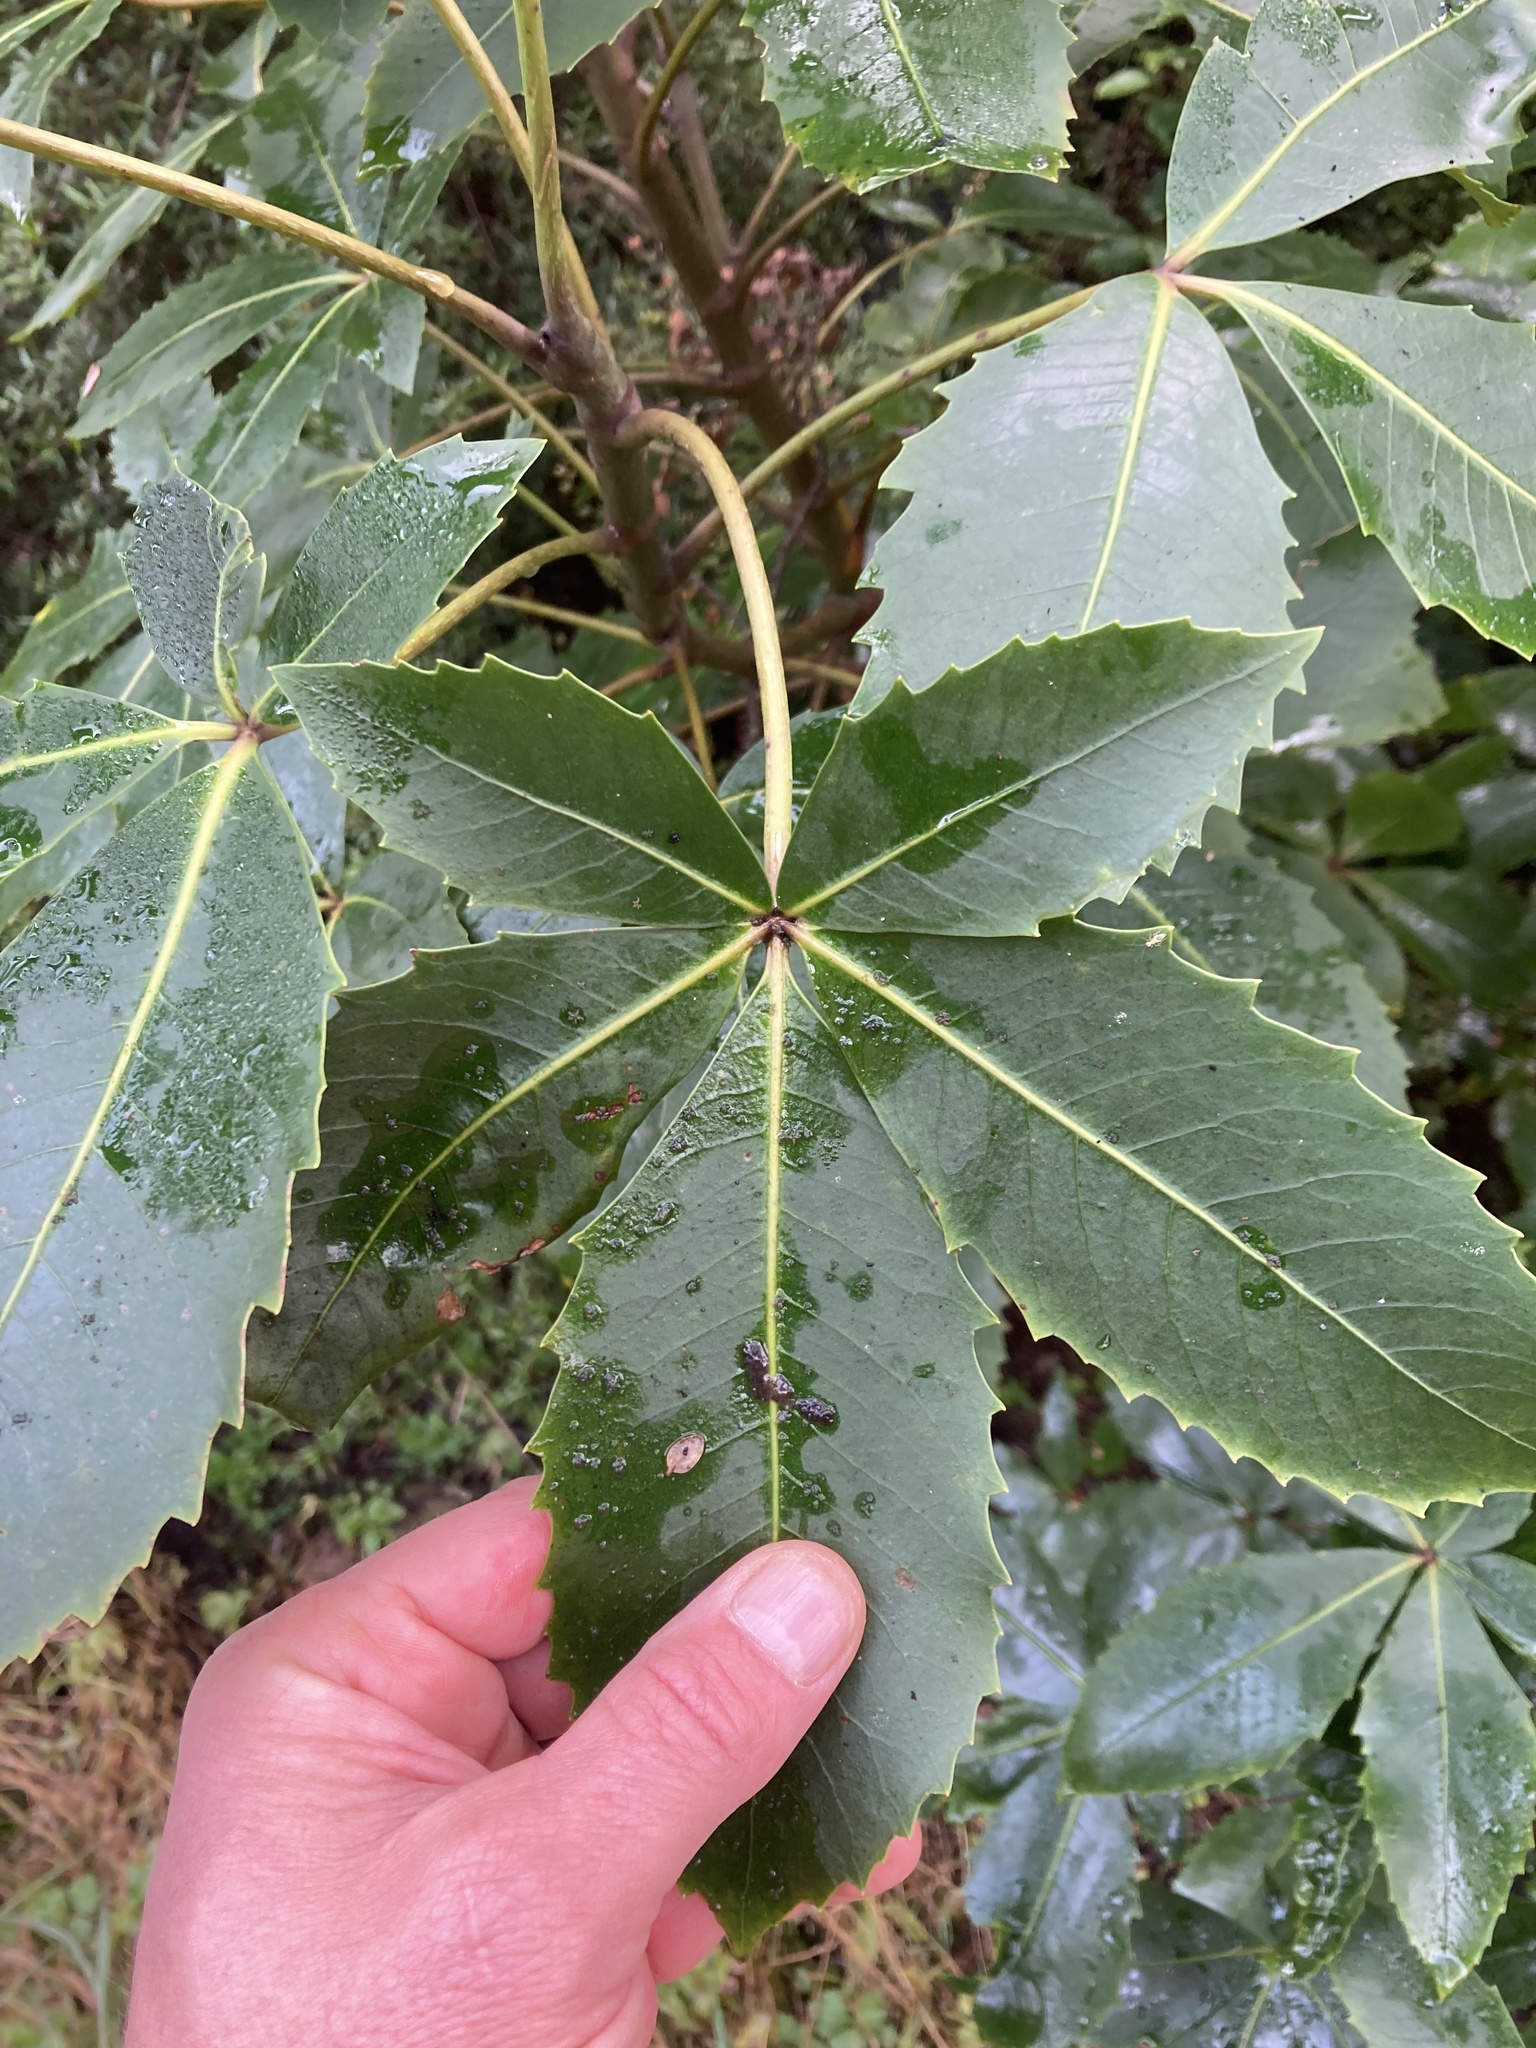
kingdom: Plantae
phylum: Tracheophyta
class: Magnoliopsida
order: Apiales
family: Araliaceae
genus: Neopanax
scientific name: Neopanax colensoi
